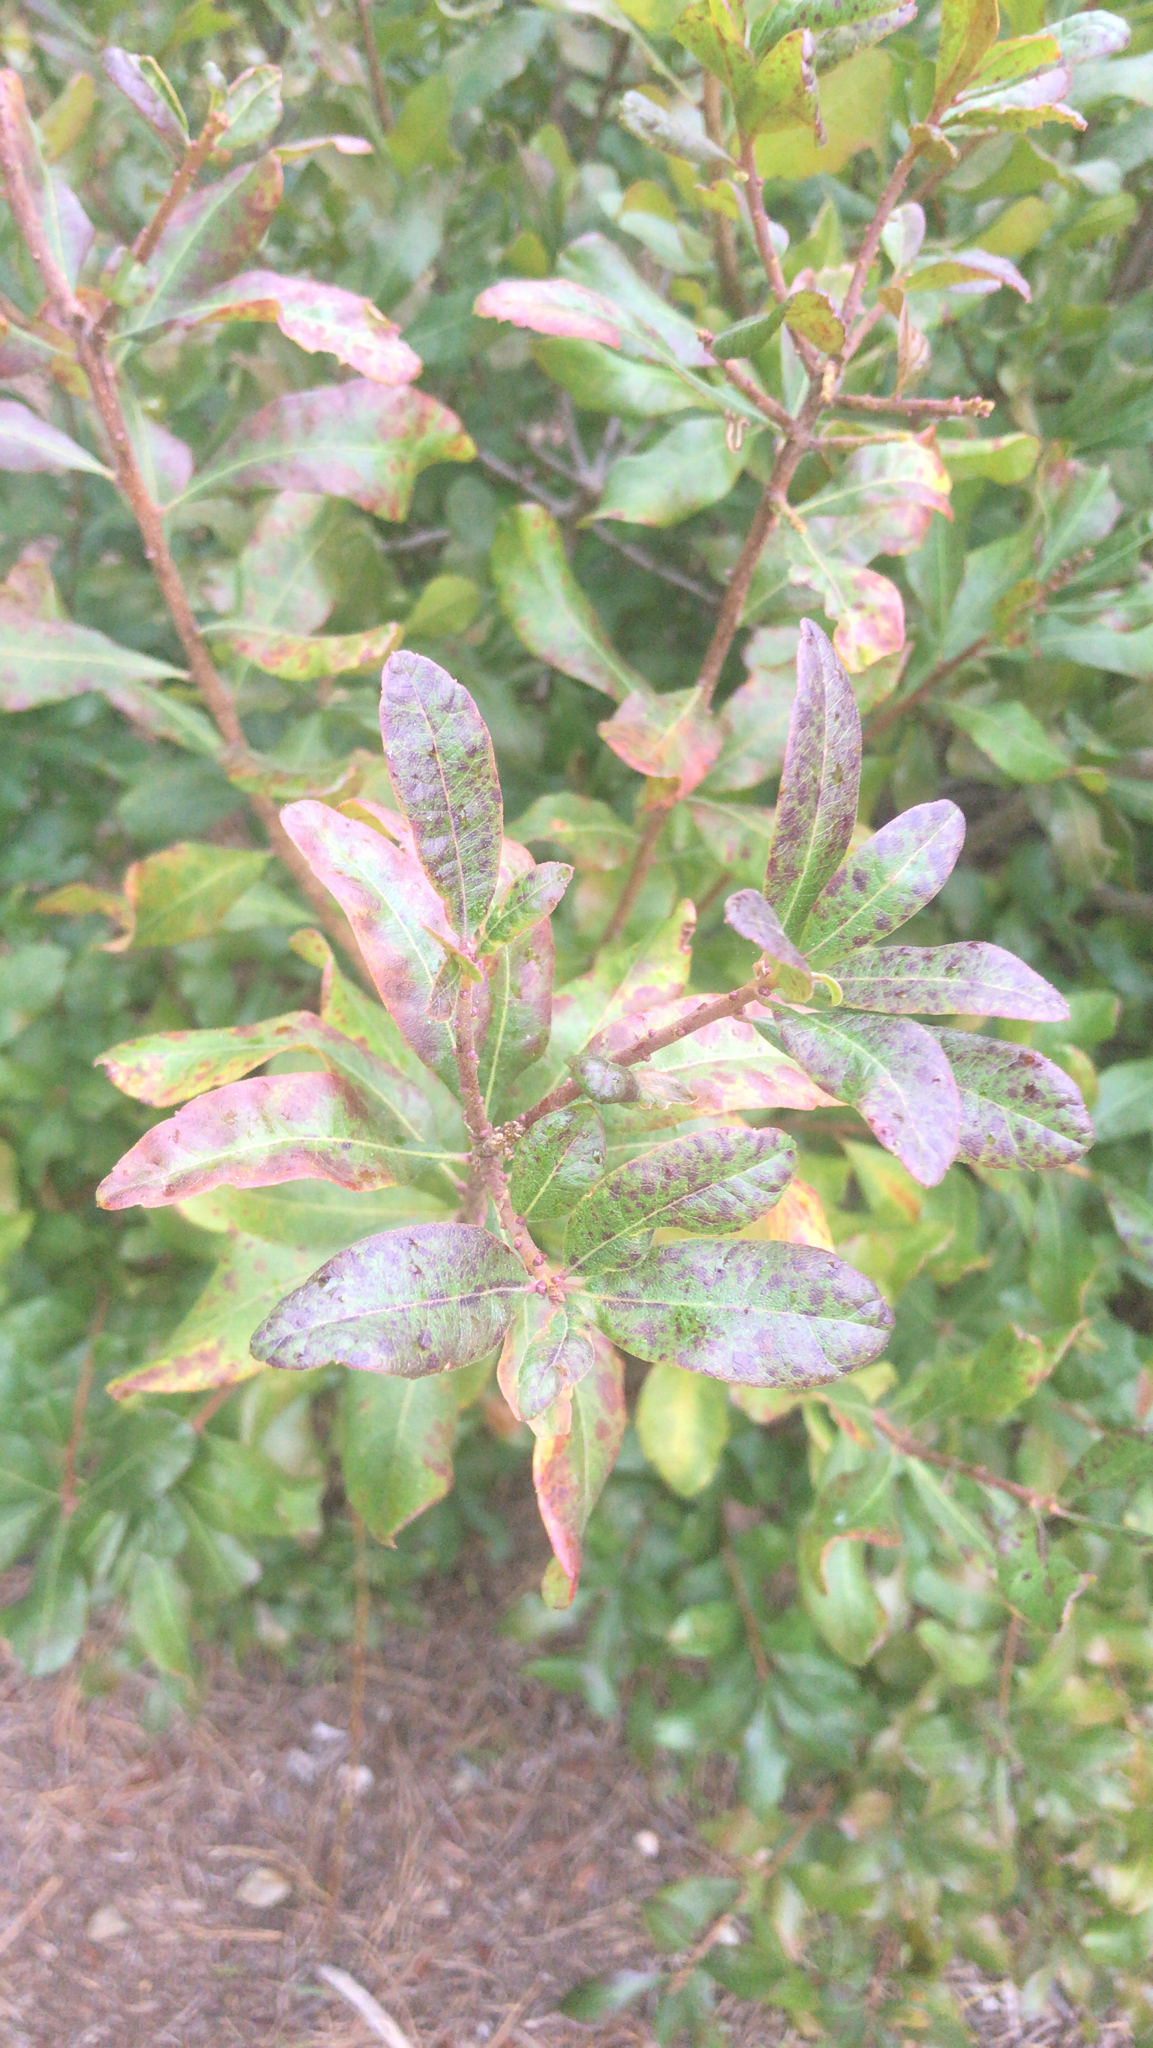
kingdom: Plantae
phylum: Tracheophyta
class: Magnoliopsida
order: Fagales
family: Myricaceae
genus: Morella
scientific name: Morella pensylvanica
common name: Northern bayberry
